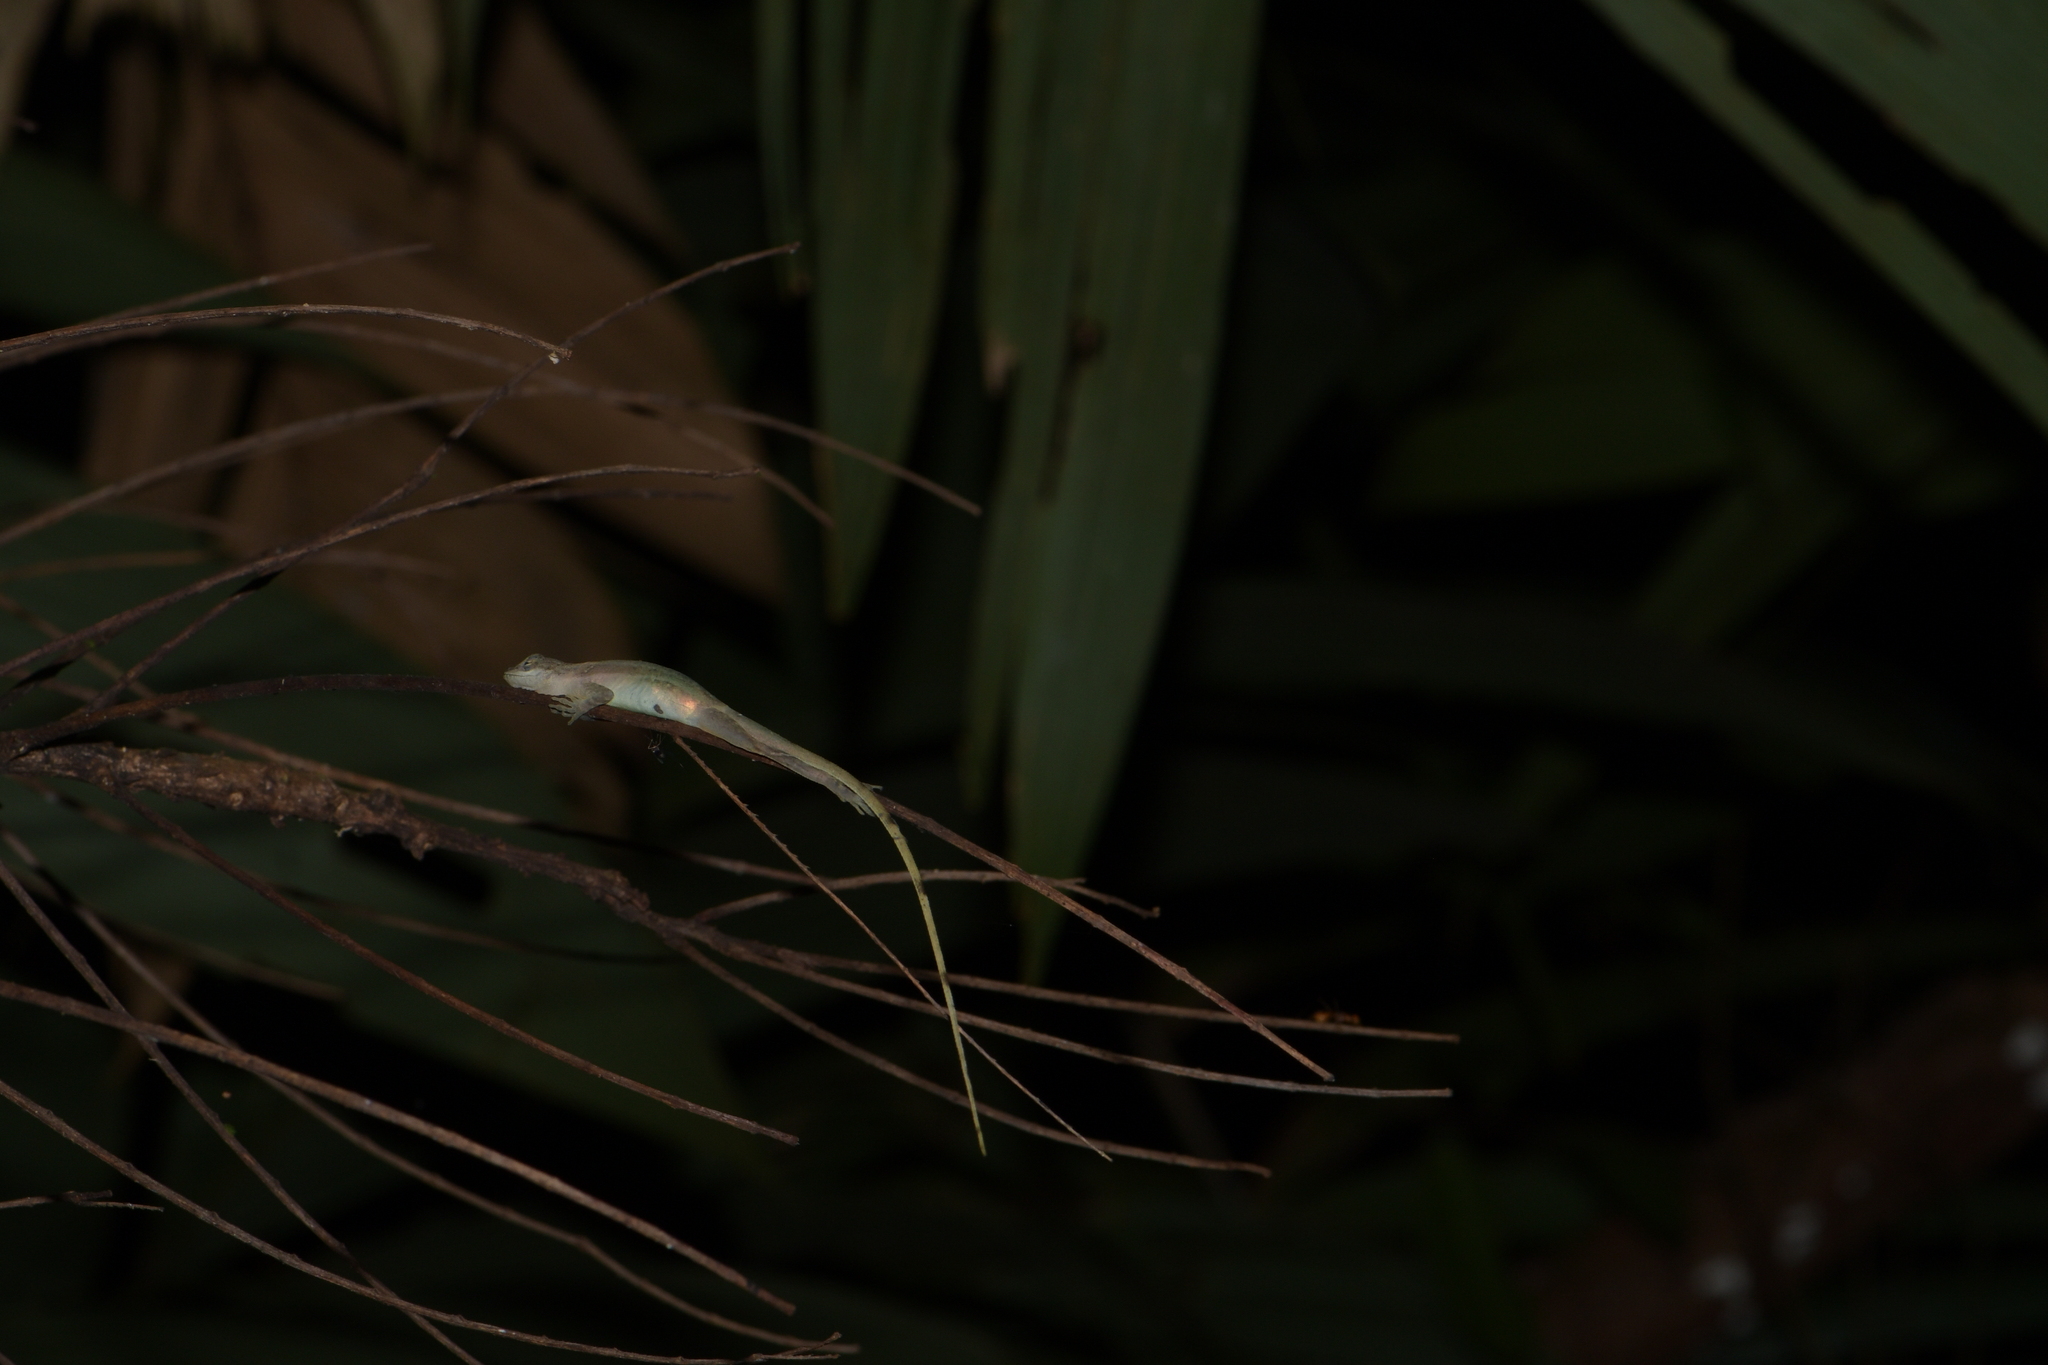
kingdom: Animalia
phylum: Chordata
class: Squamata
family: Dactyloidae
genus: Anolis
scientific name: Anolis limifrons
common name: Border anole
